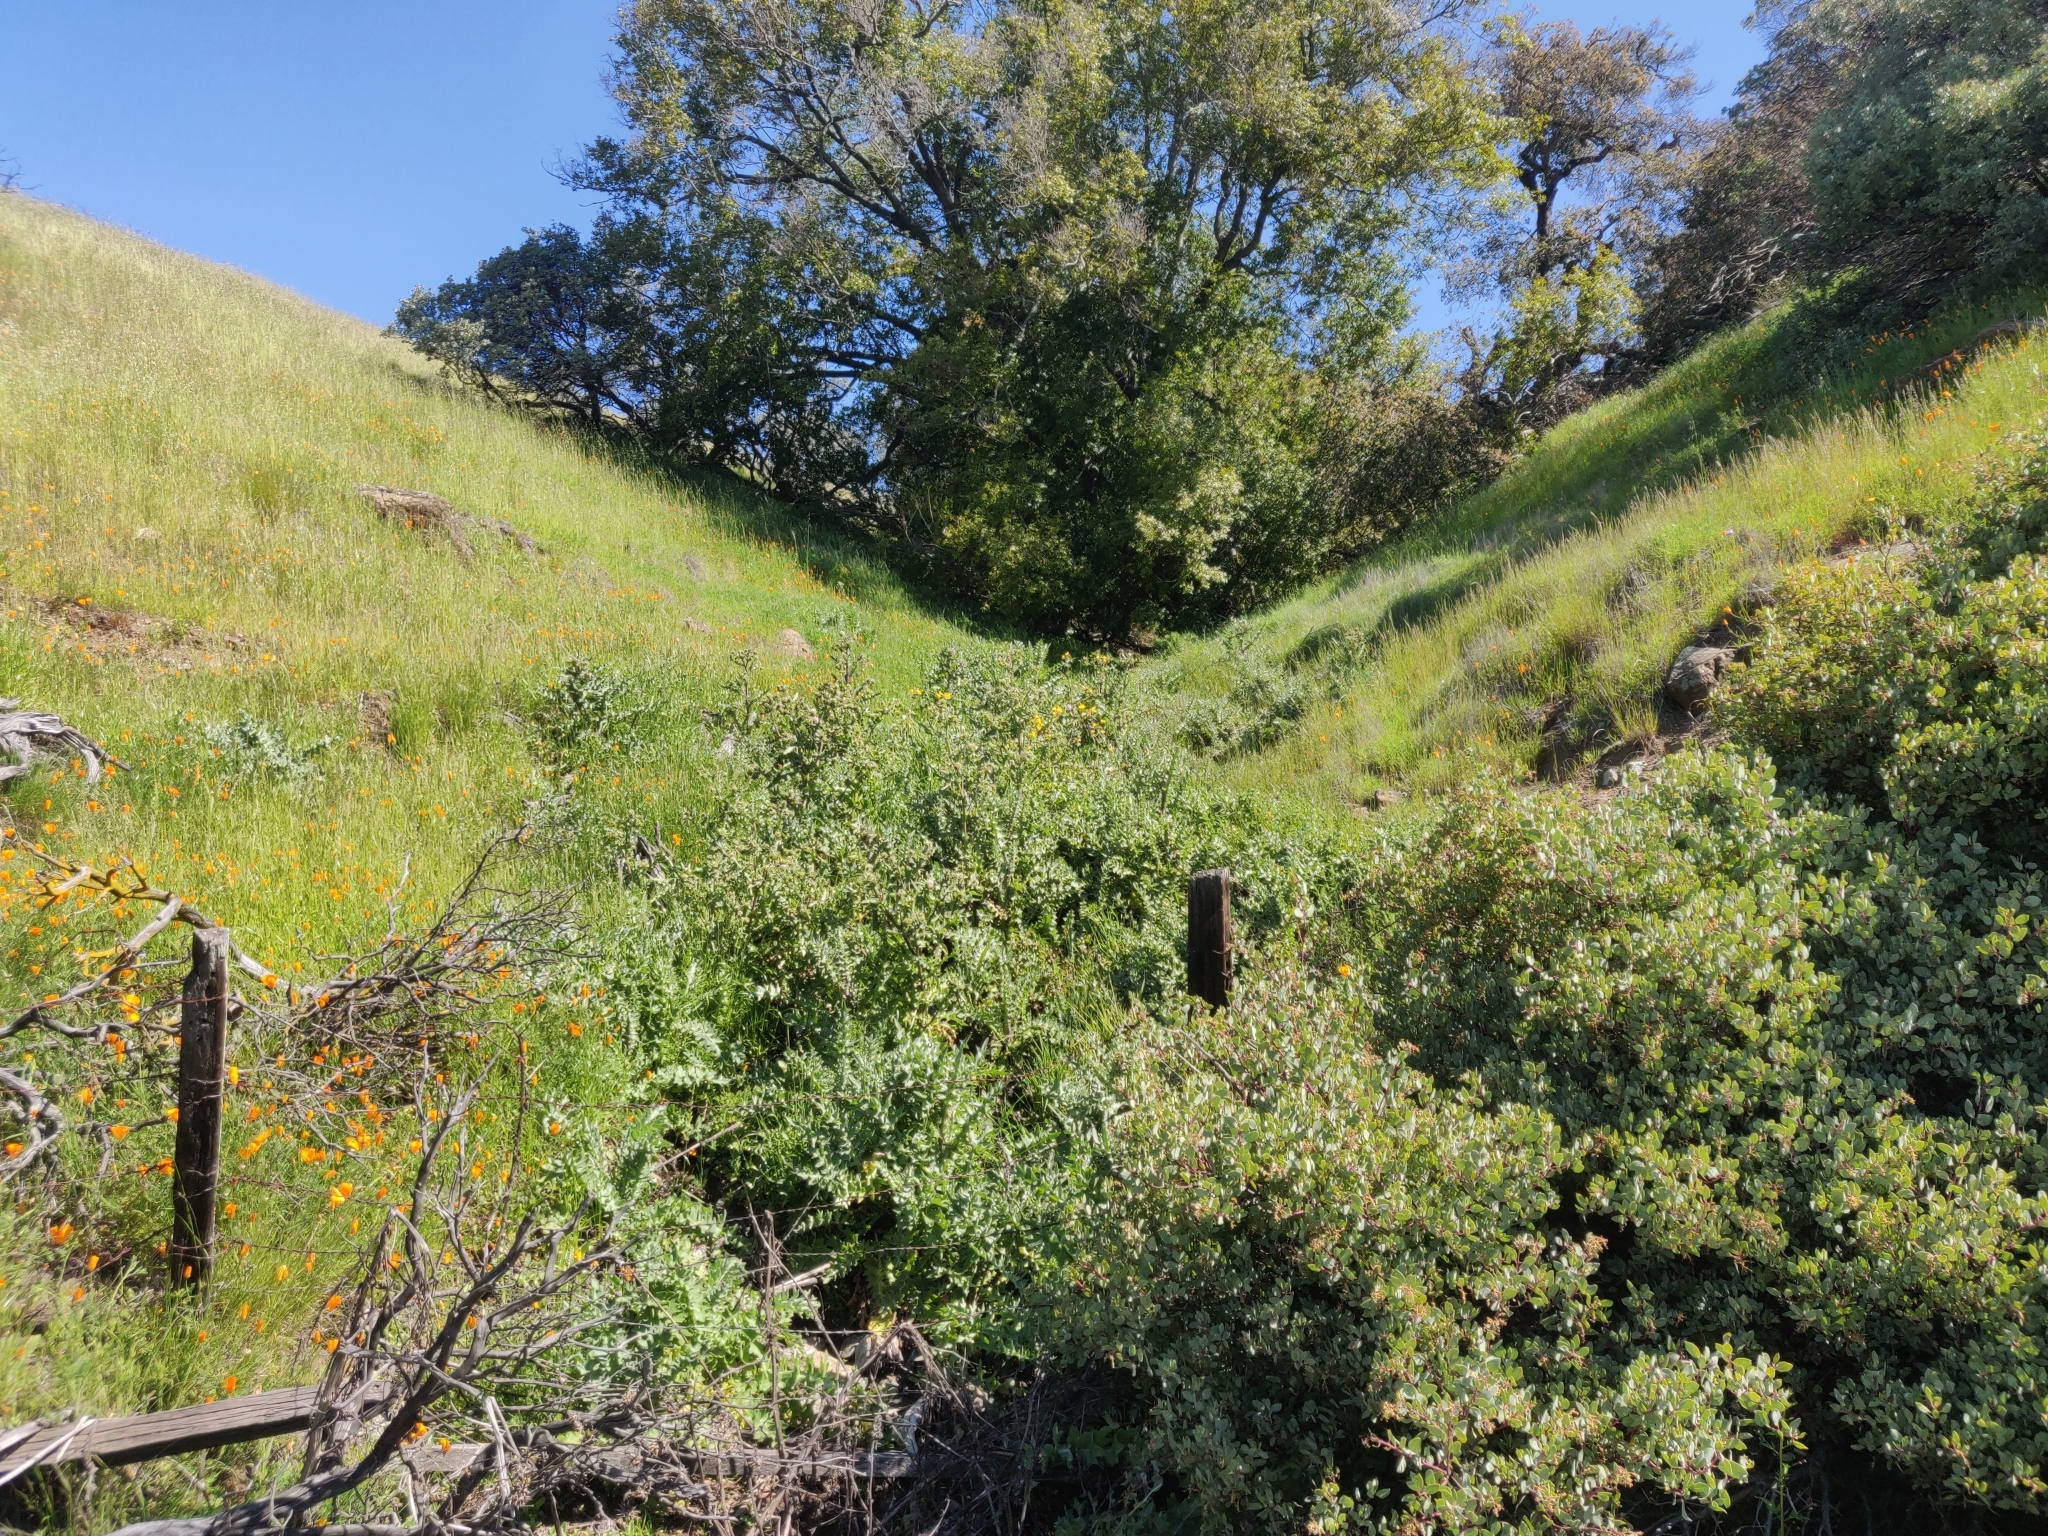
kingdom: Plantae
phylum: Tracheophyta
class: Magnoliopsida
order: Asterales
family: Asteraceae
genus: Cirsium
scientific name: Cirsium fontinale
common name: Fountain thistle
